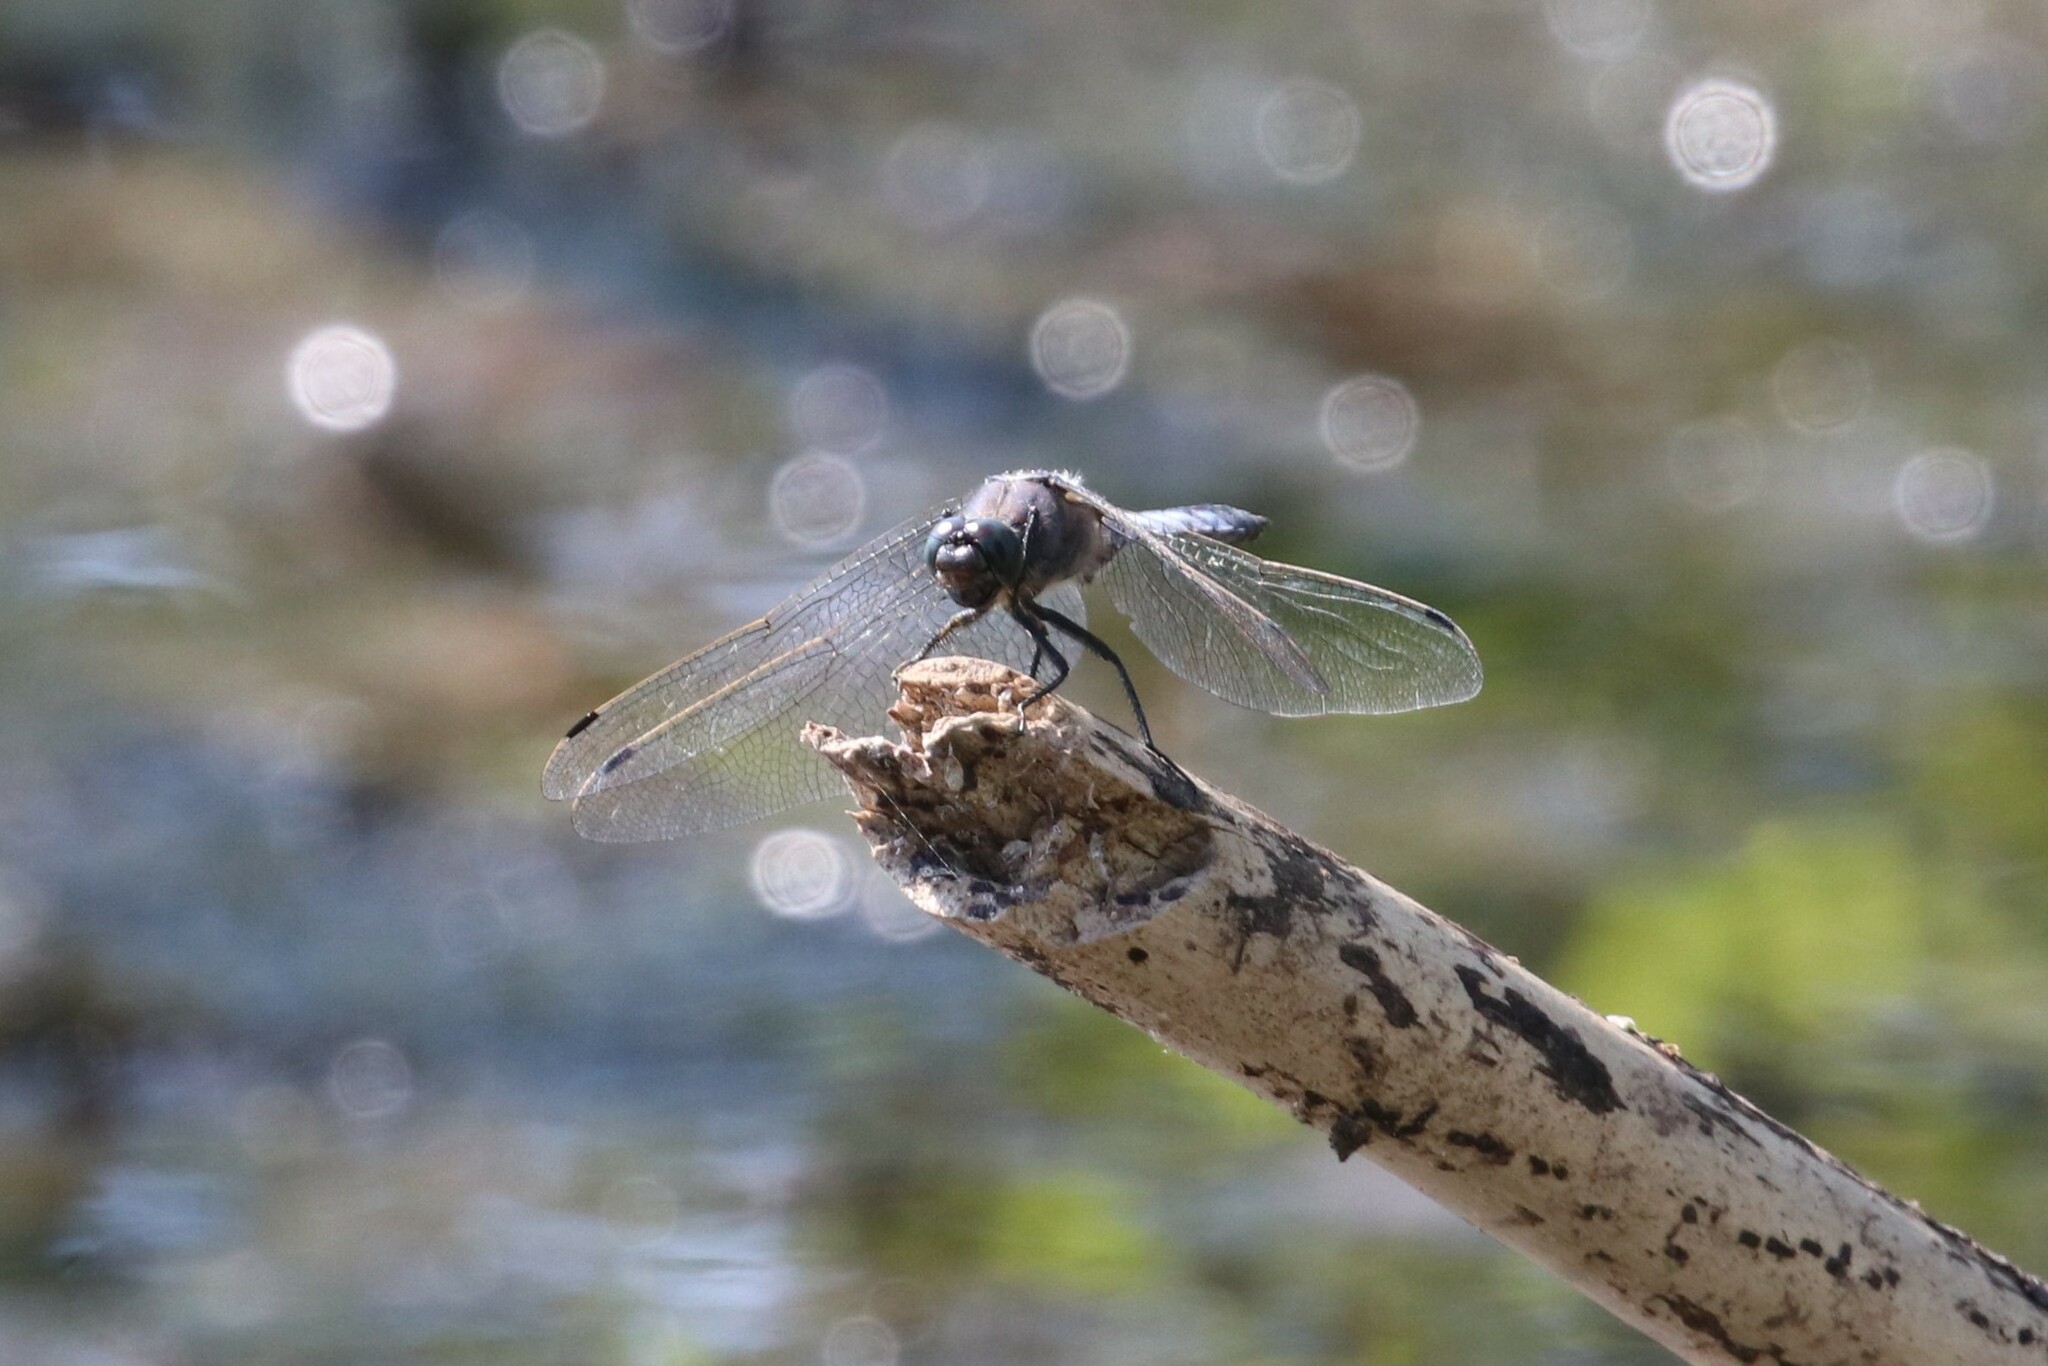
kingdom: Animalia
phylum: Arthropoda
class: Insecta
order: Odonata
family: Libellulidae
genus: Orthetrum
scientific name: Orthetrum cancellatum
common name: Black-tailed skimmer
